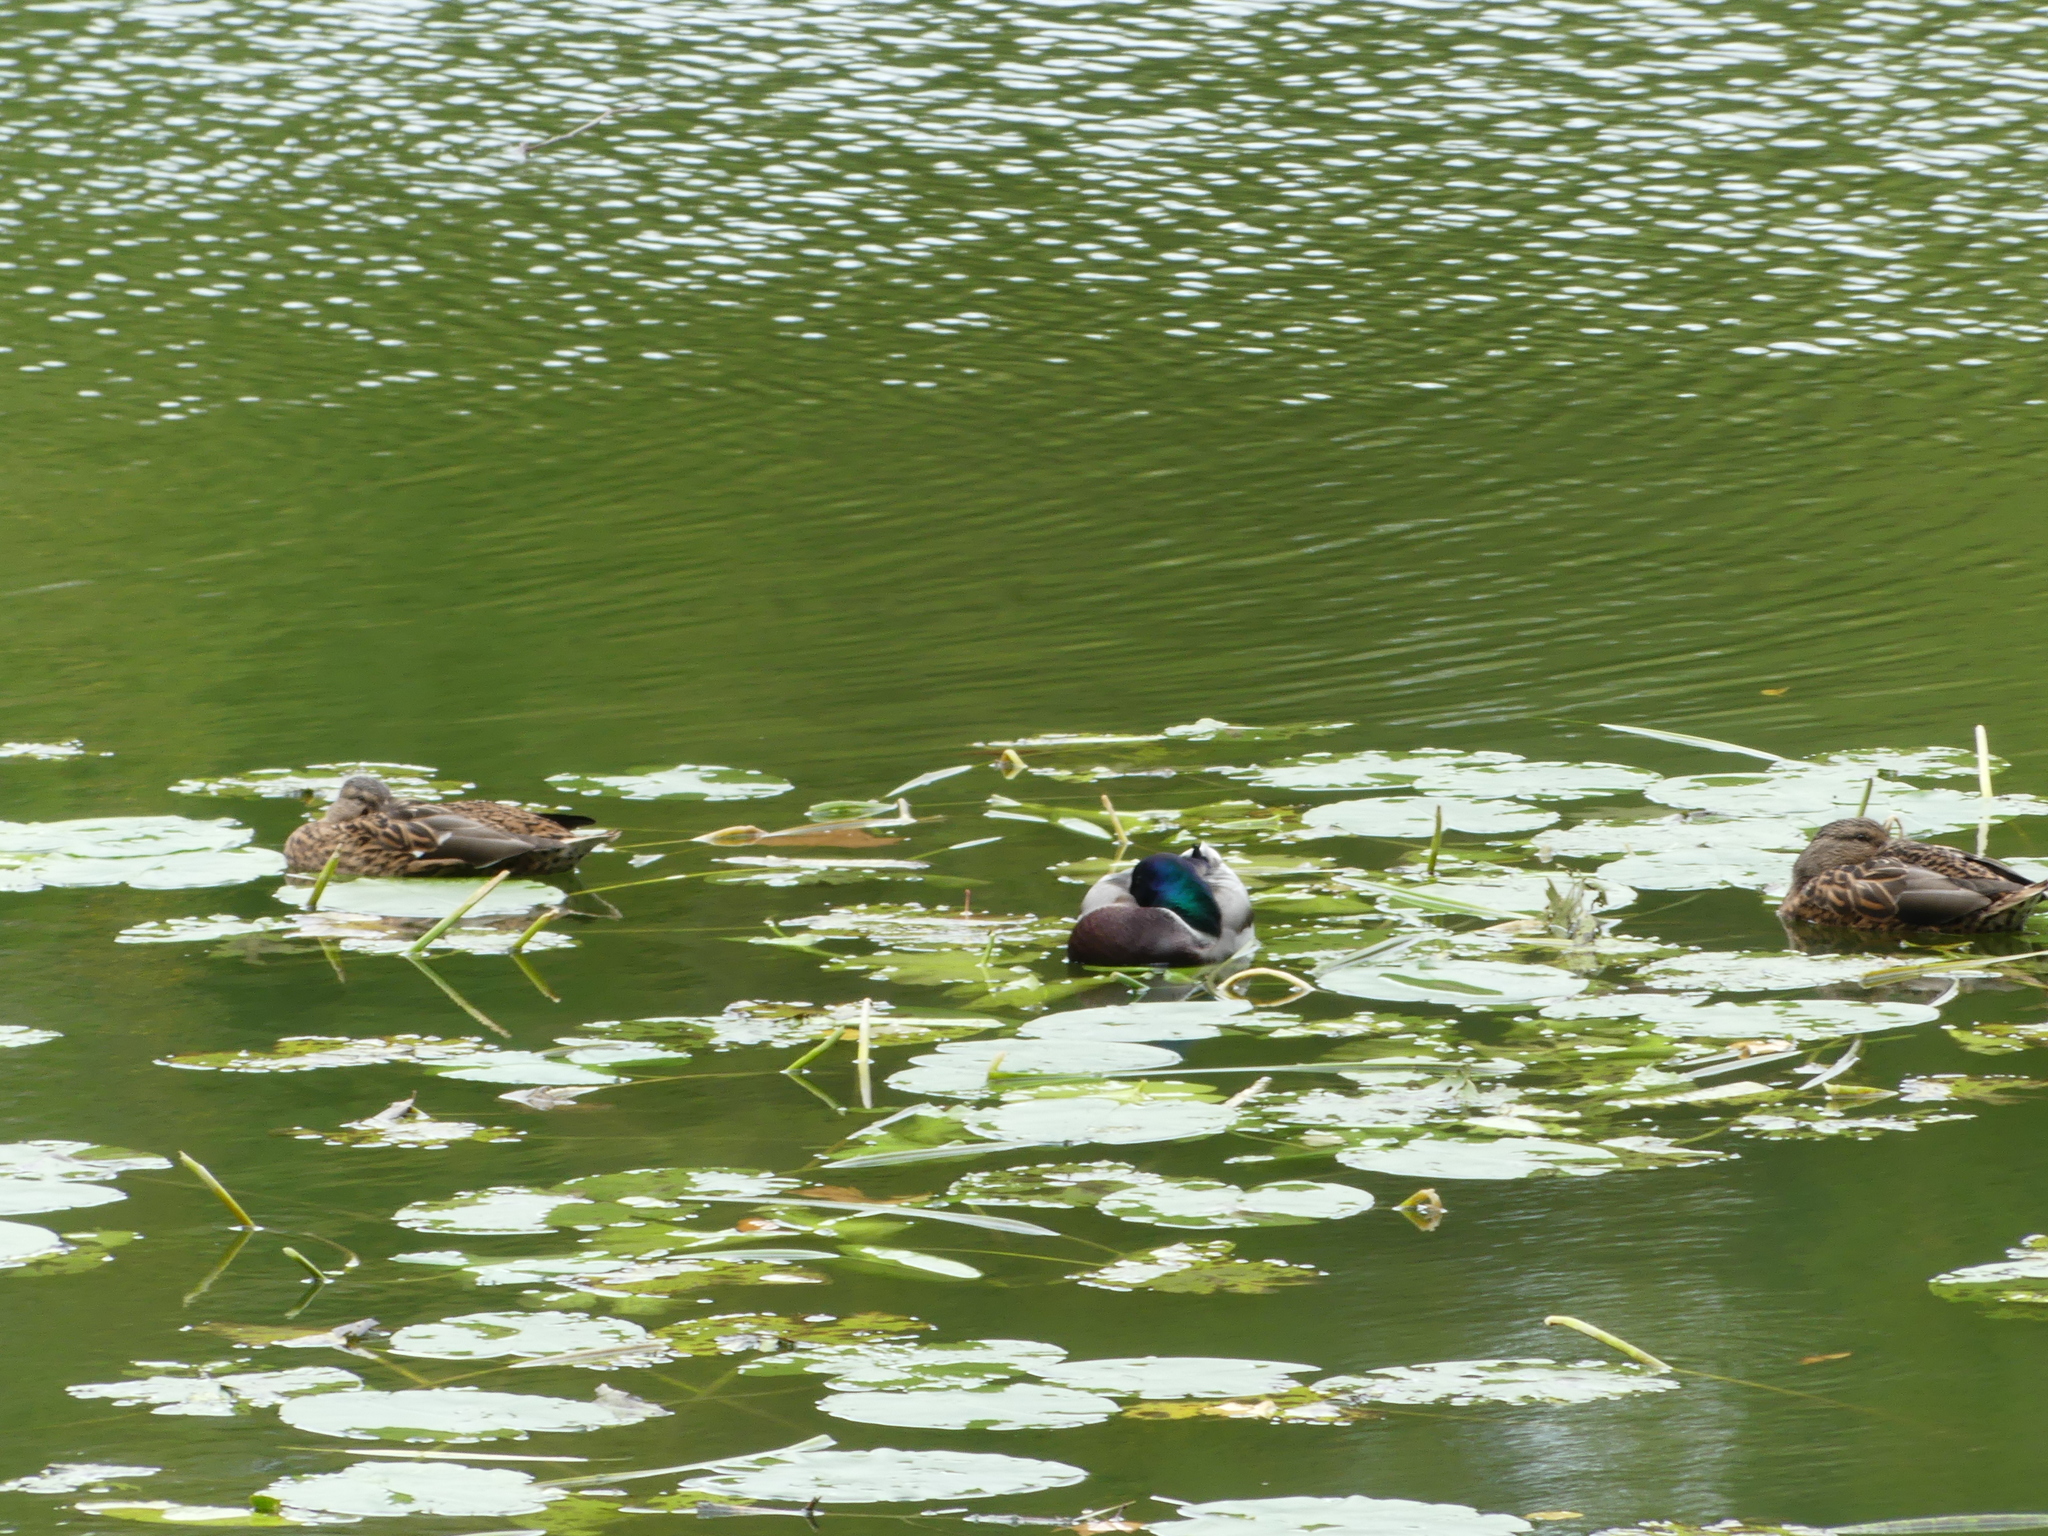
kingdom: Animalia
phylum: Chordata
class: Aves
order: Anseriformes
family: Anatidae
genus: Anas
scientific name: Anas platyrhynchos
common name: Mallard
